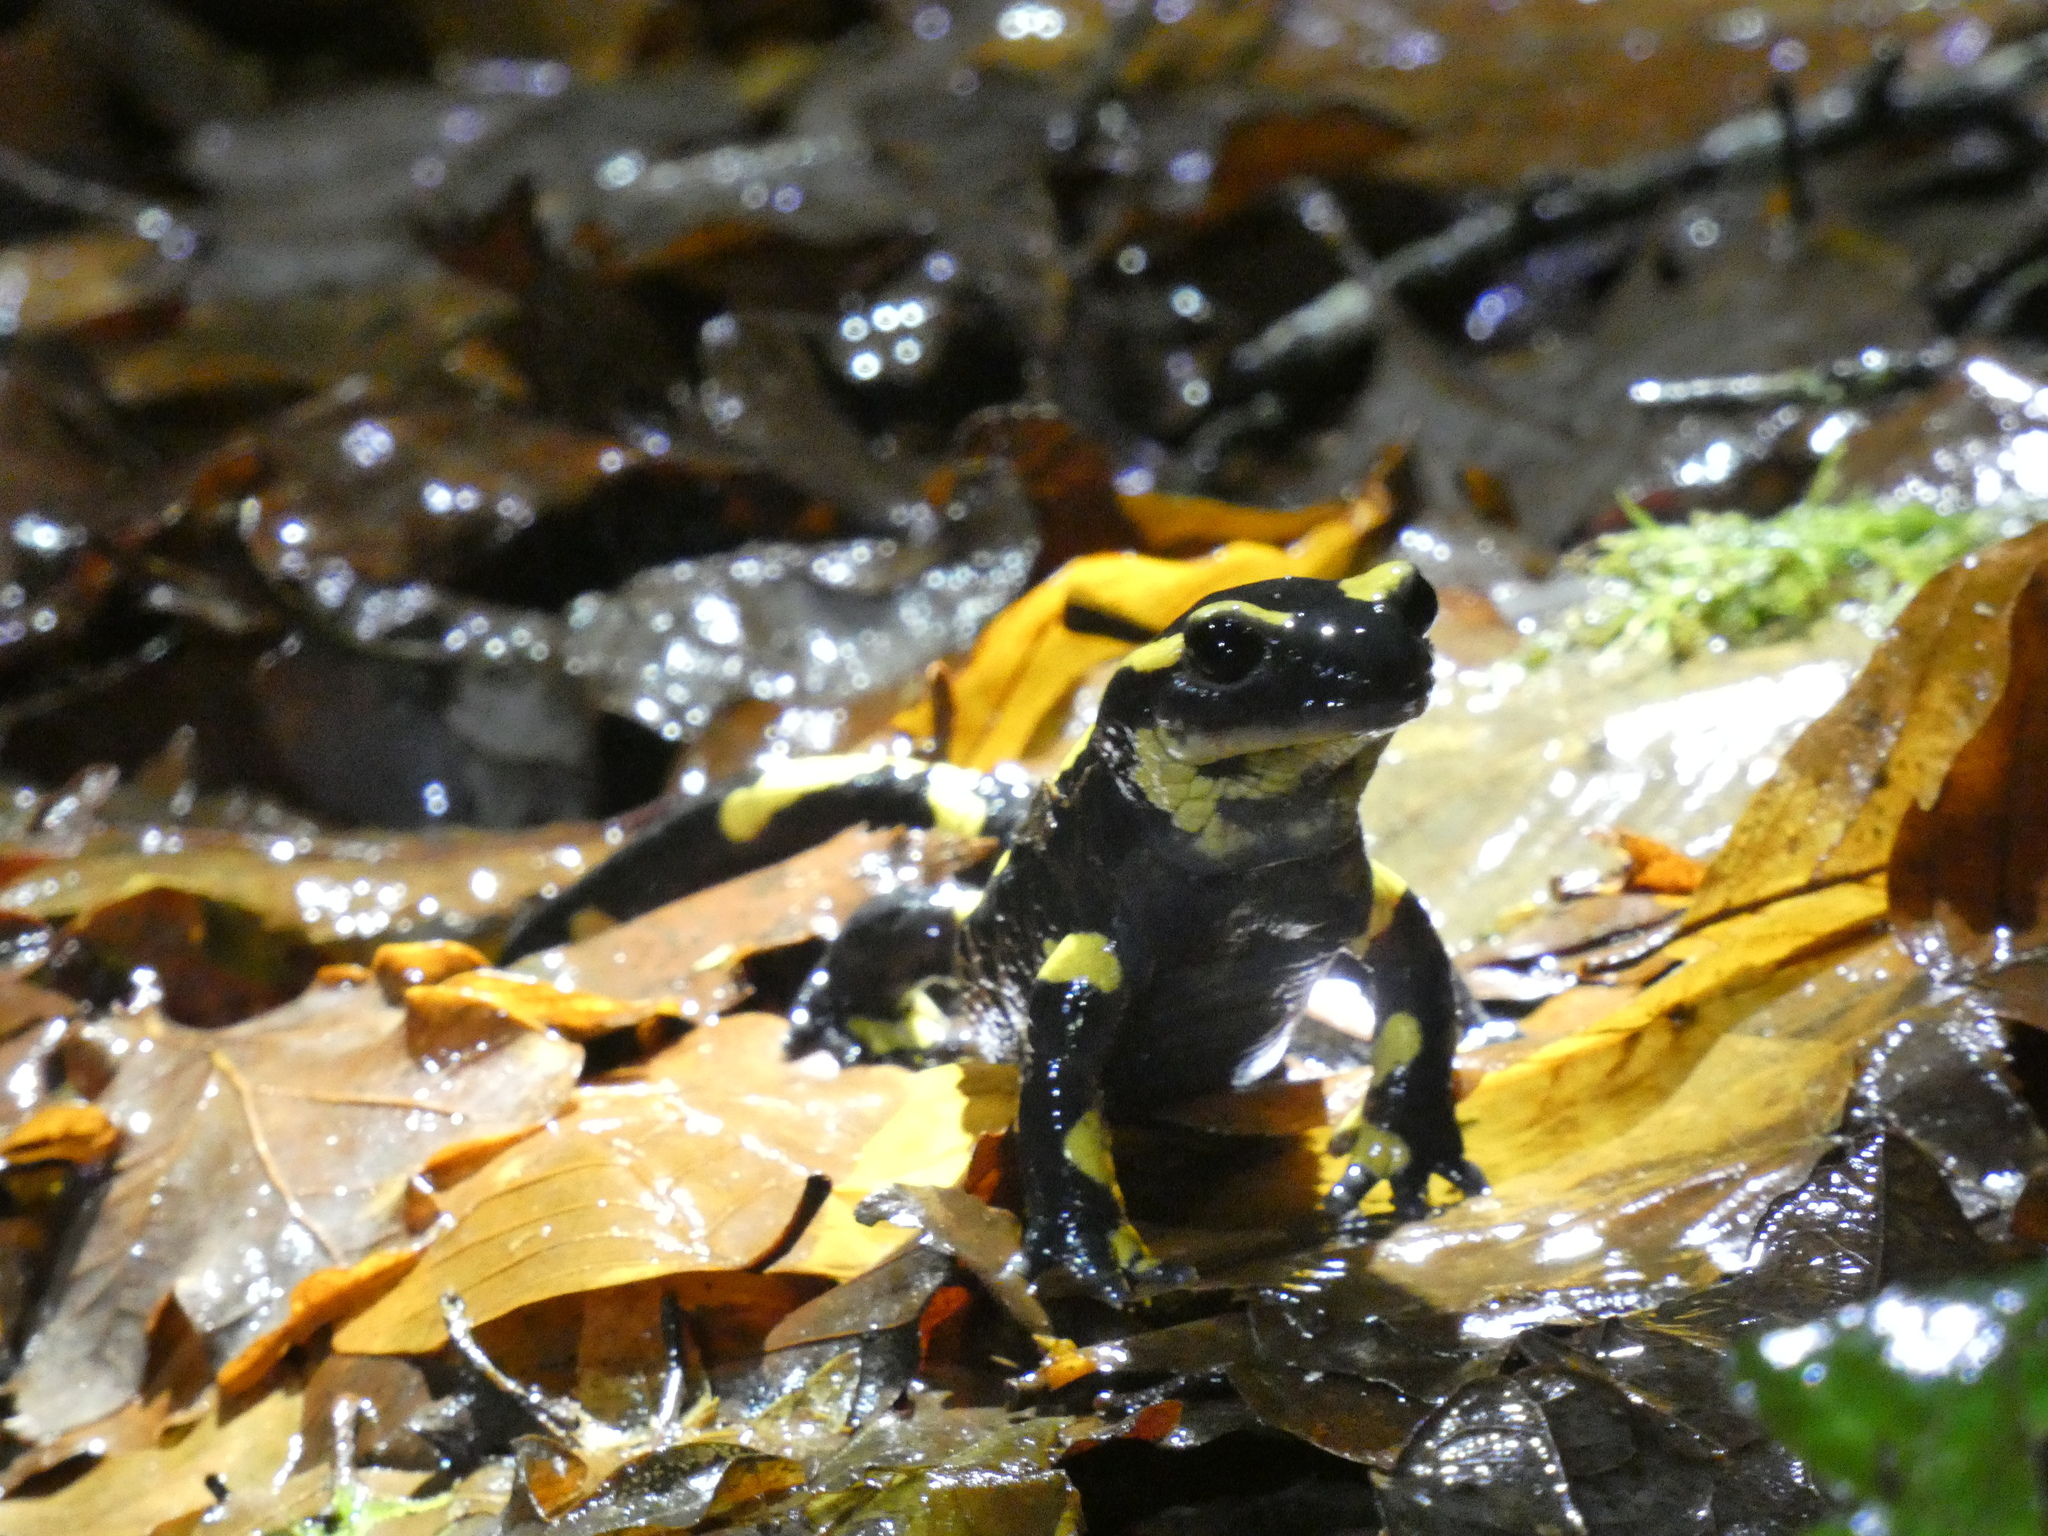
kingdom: Animalia
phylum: Chordata
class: Amphibia
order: Caudata
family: Salamandridae
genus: Salamandra
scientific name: Salamandra salamandra
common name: Fire salamander
